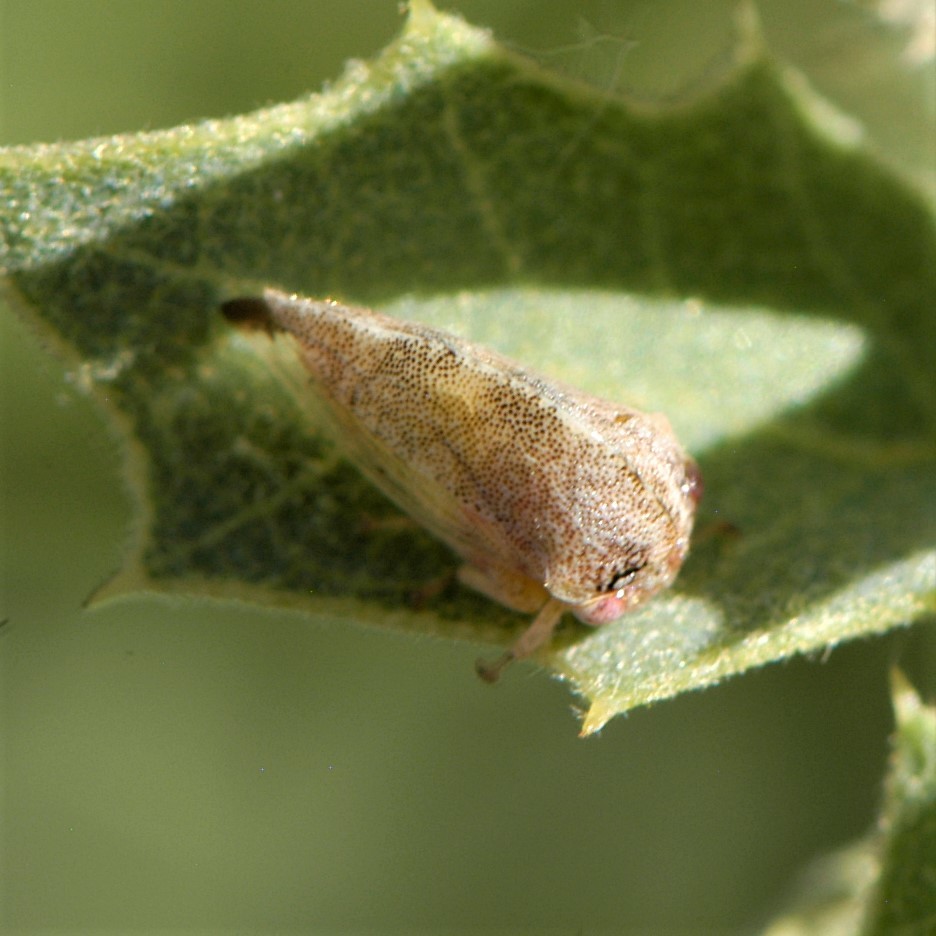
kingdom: Animalia
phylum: Arthropoda
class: Insecta
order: Hemiptera
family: Membracidae
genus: Cyrtolobus
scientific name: Cyrtolobus
